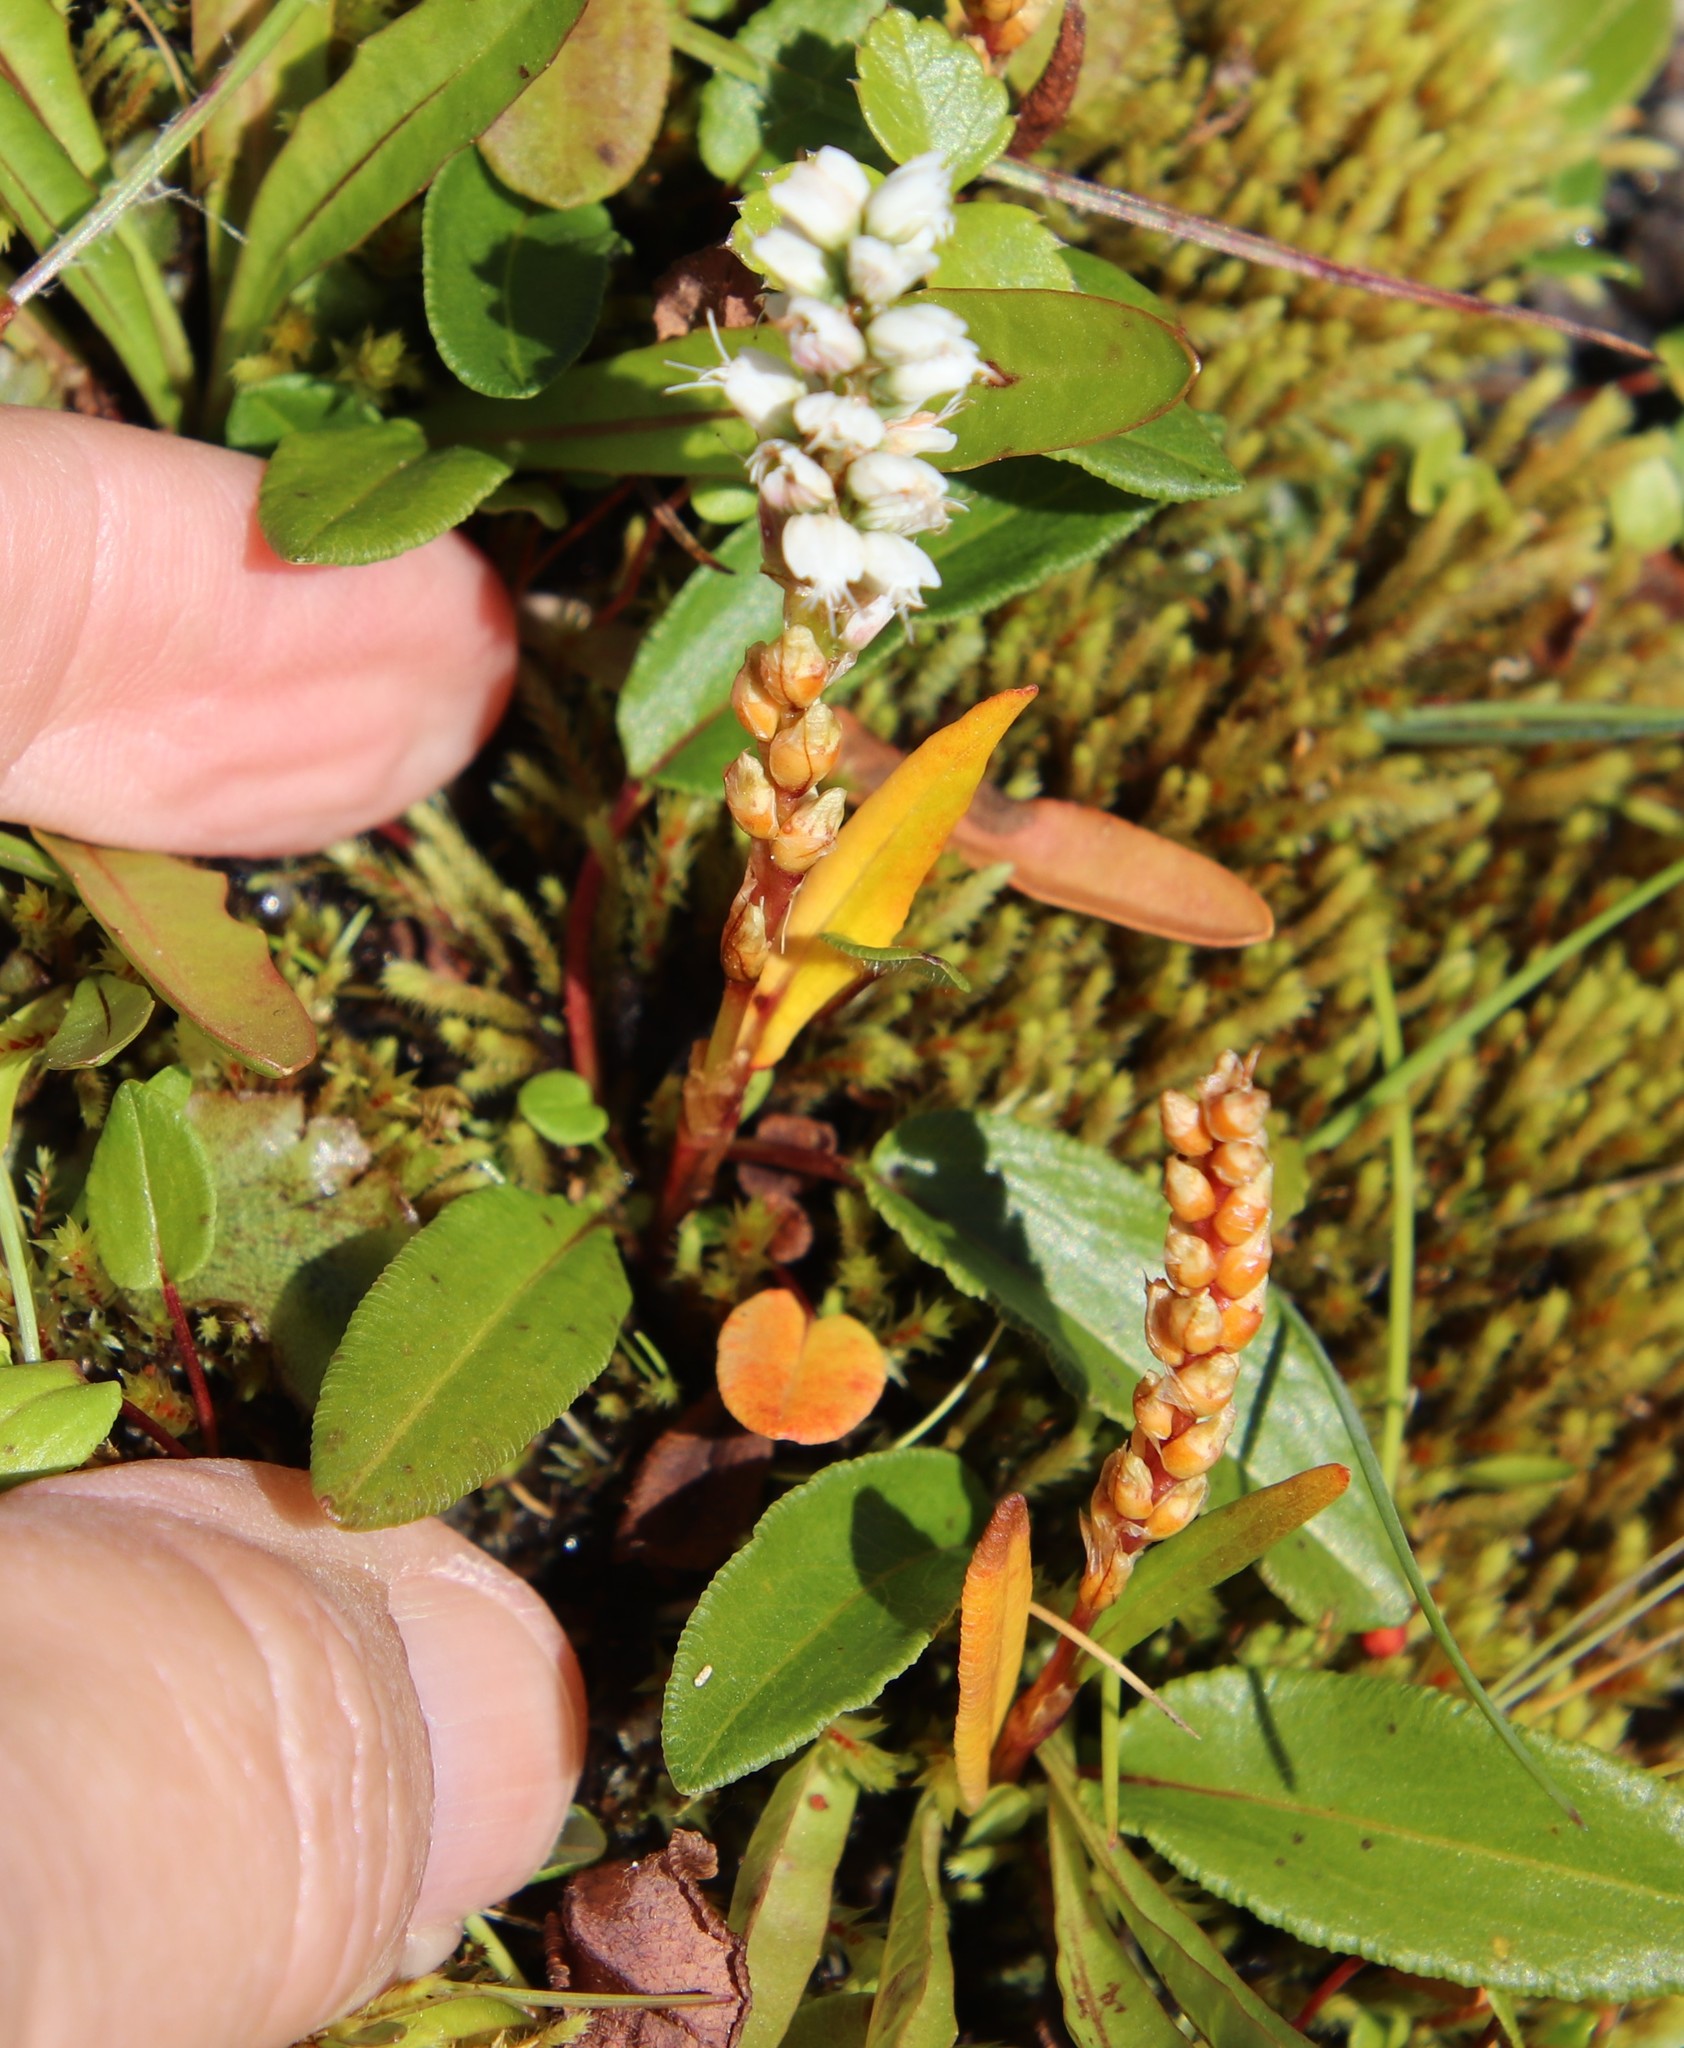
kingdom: Plantae
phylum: Tracheophyta
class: Magnoliopsida
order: Caryophyllales
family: Polygonaceae
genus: Bistorta
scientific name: Bistorta vivipara
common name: Alpine bistort
